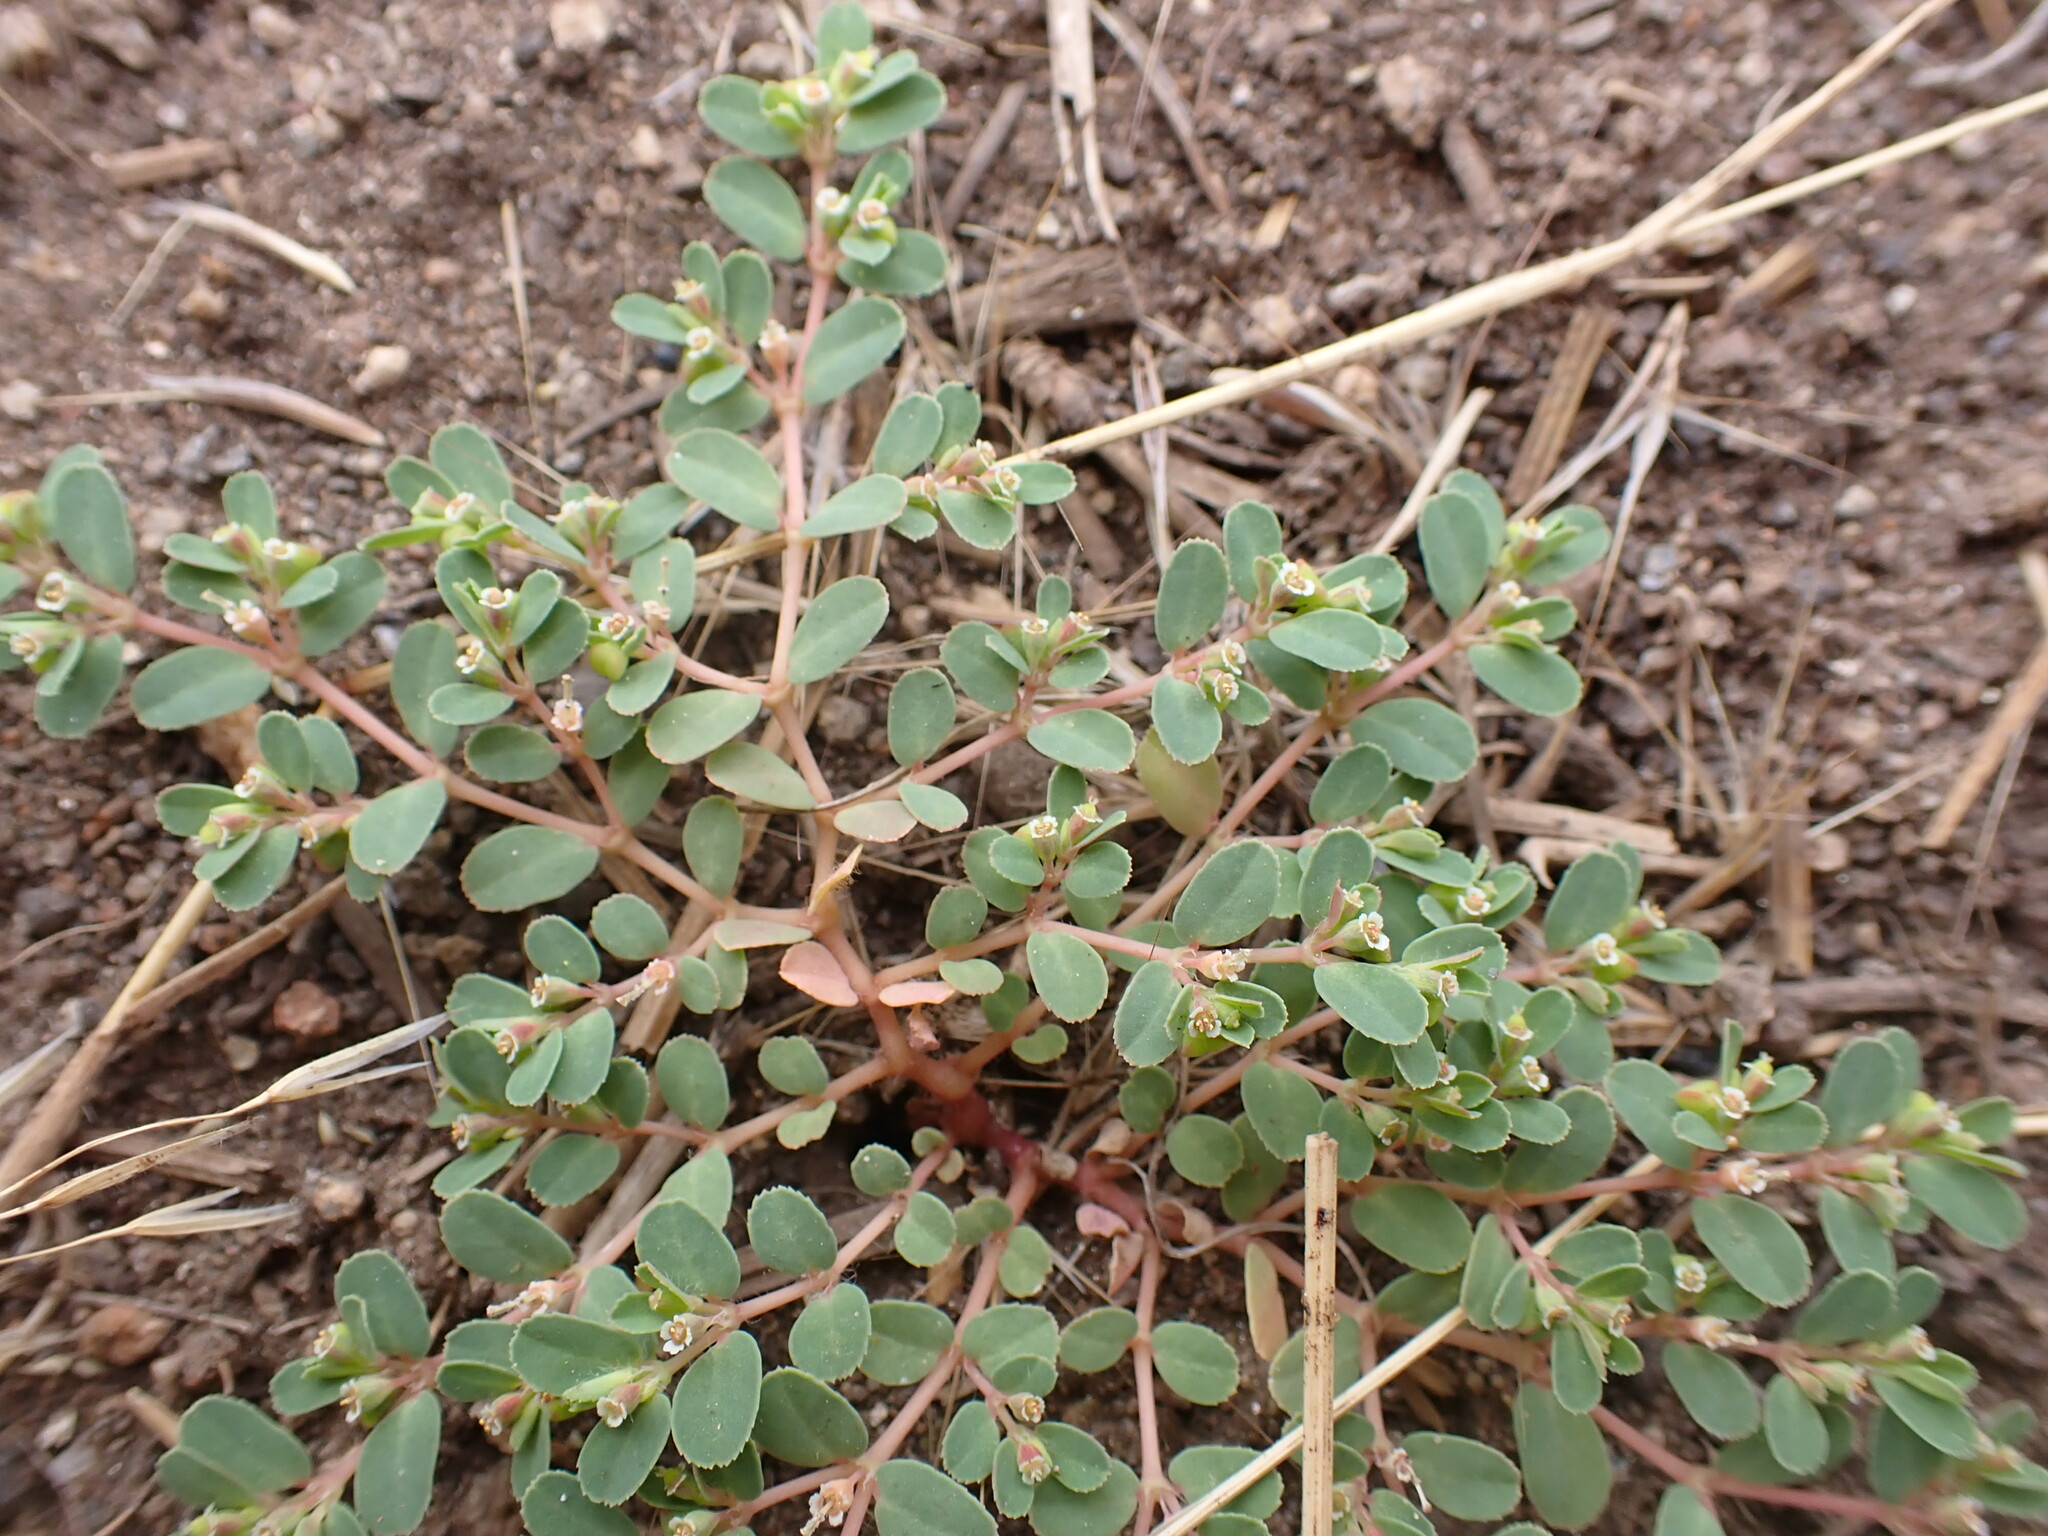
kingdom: Plantae
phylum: Tracheophyta
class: Magnoliopsida
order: Malpighiales
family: Euphorbiaceae
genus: Euphorbia
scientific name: Euphorbia serpillifolia
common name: Thyme-leaf spurge
